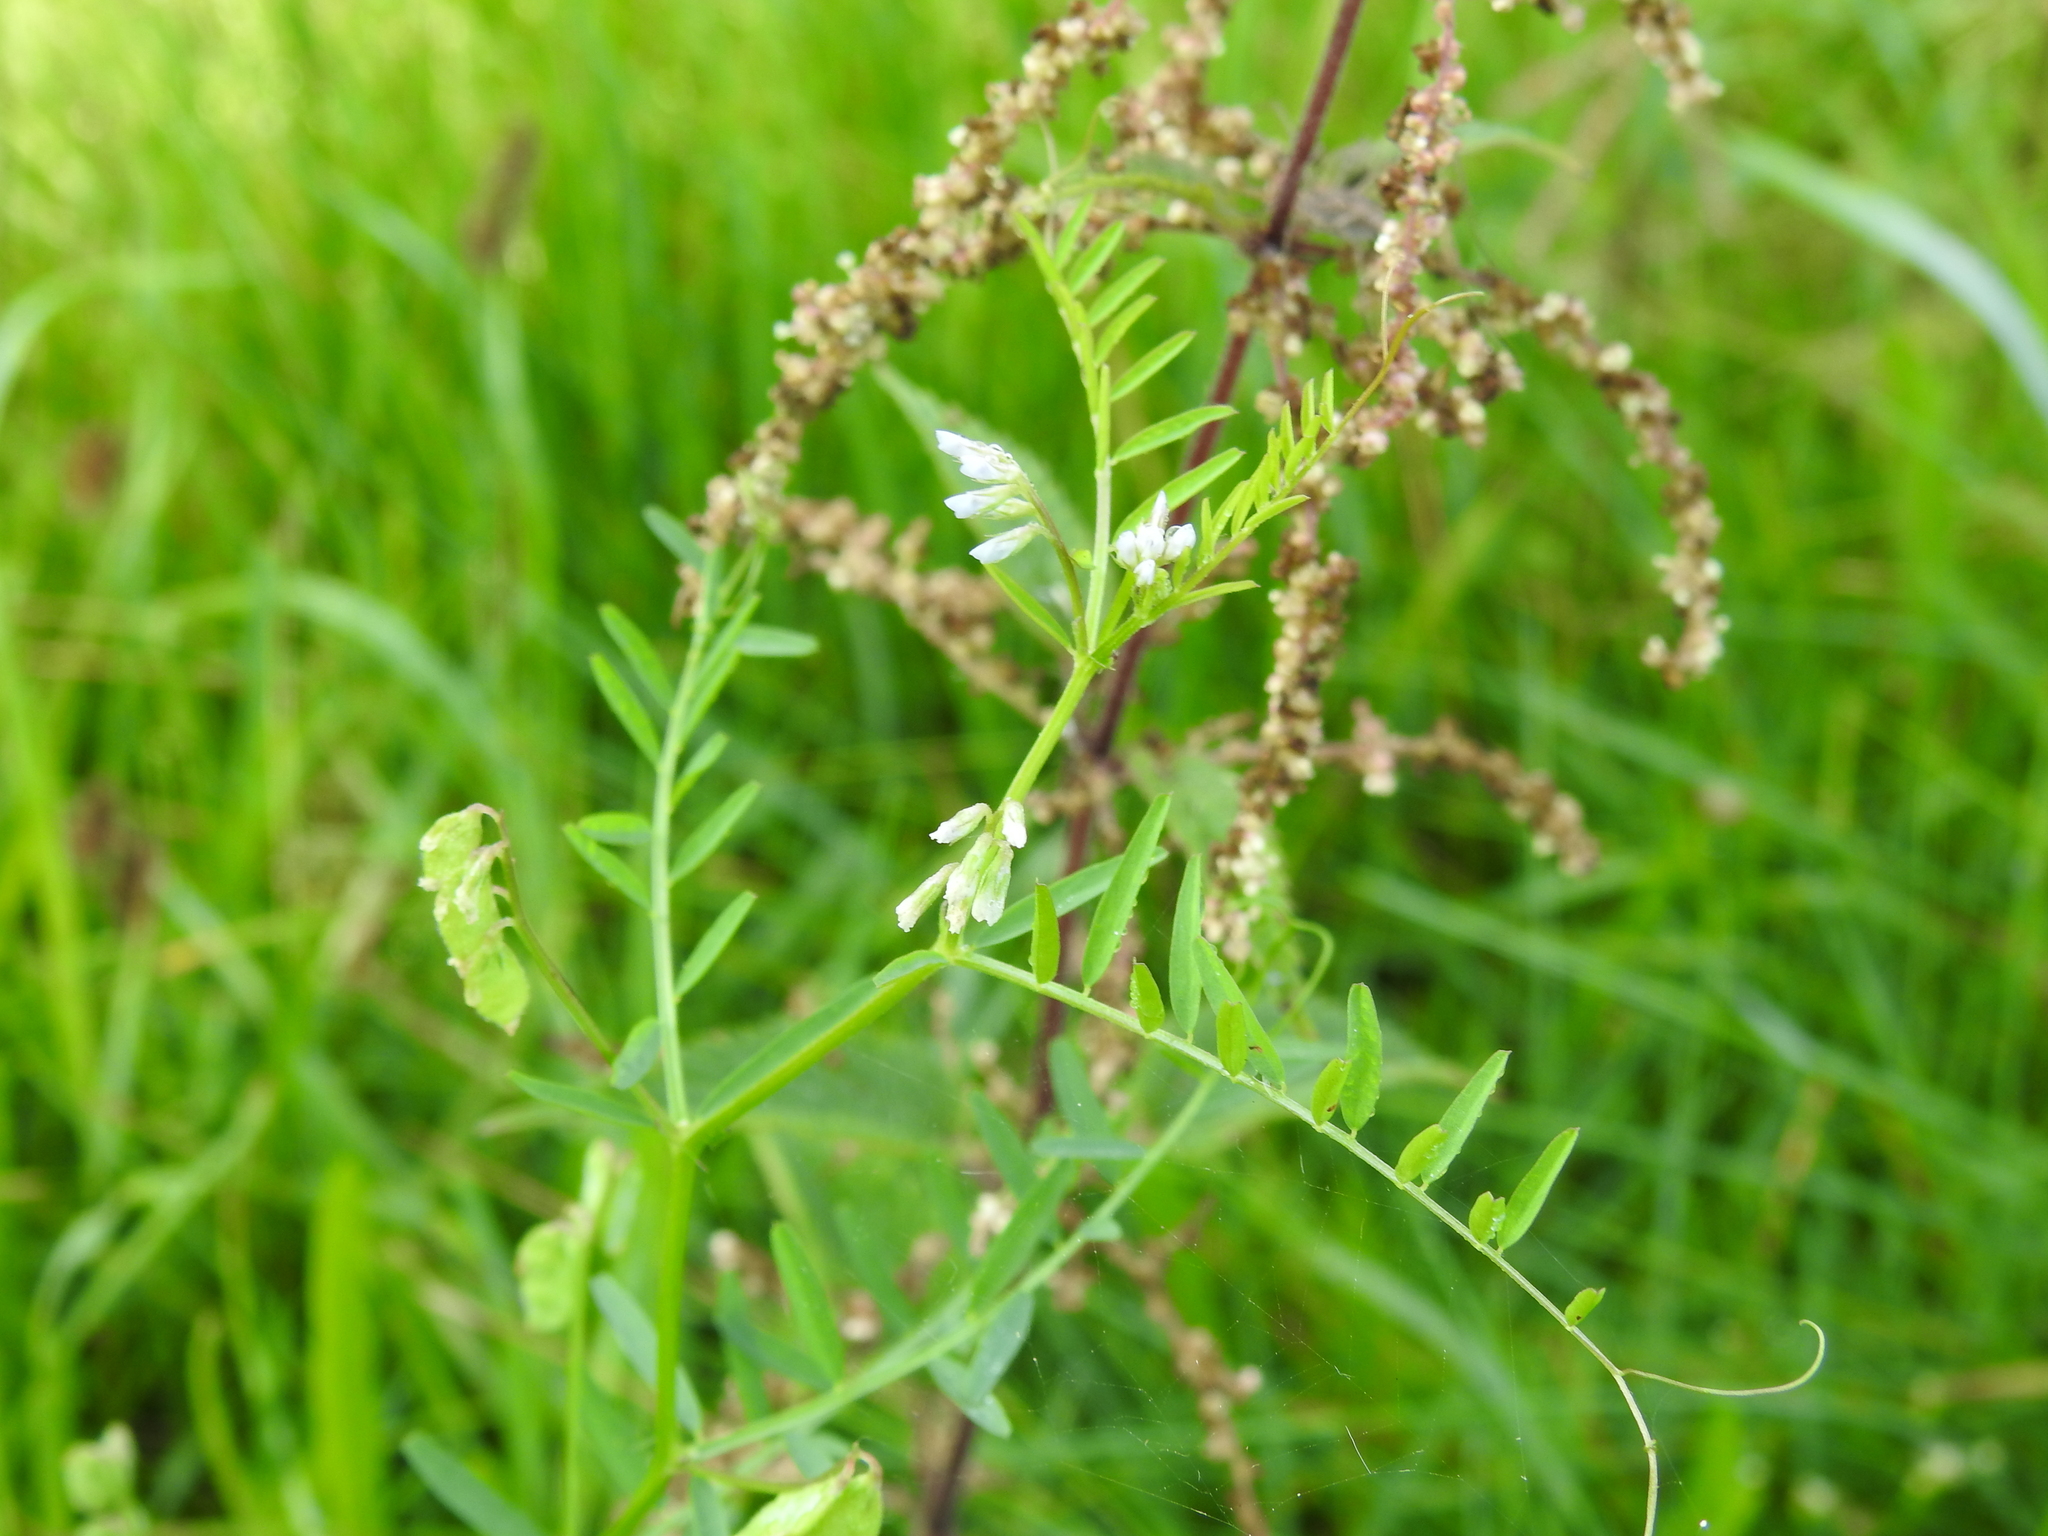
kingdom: Plantae
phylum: Tracheophyta
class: Magnoliopsida
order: Fabales
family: Fabaceae
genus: Vicia
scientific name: Vicia hirsuta
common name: Tiny vetch
